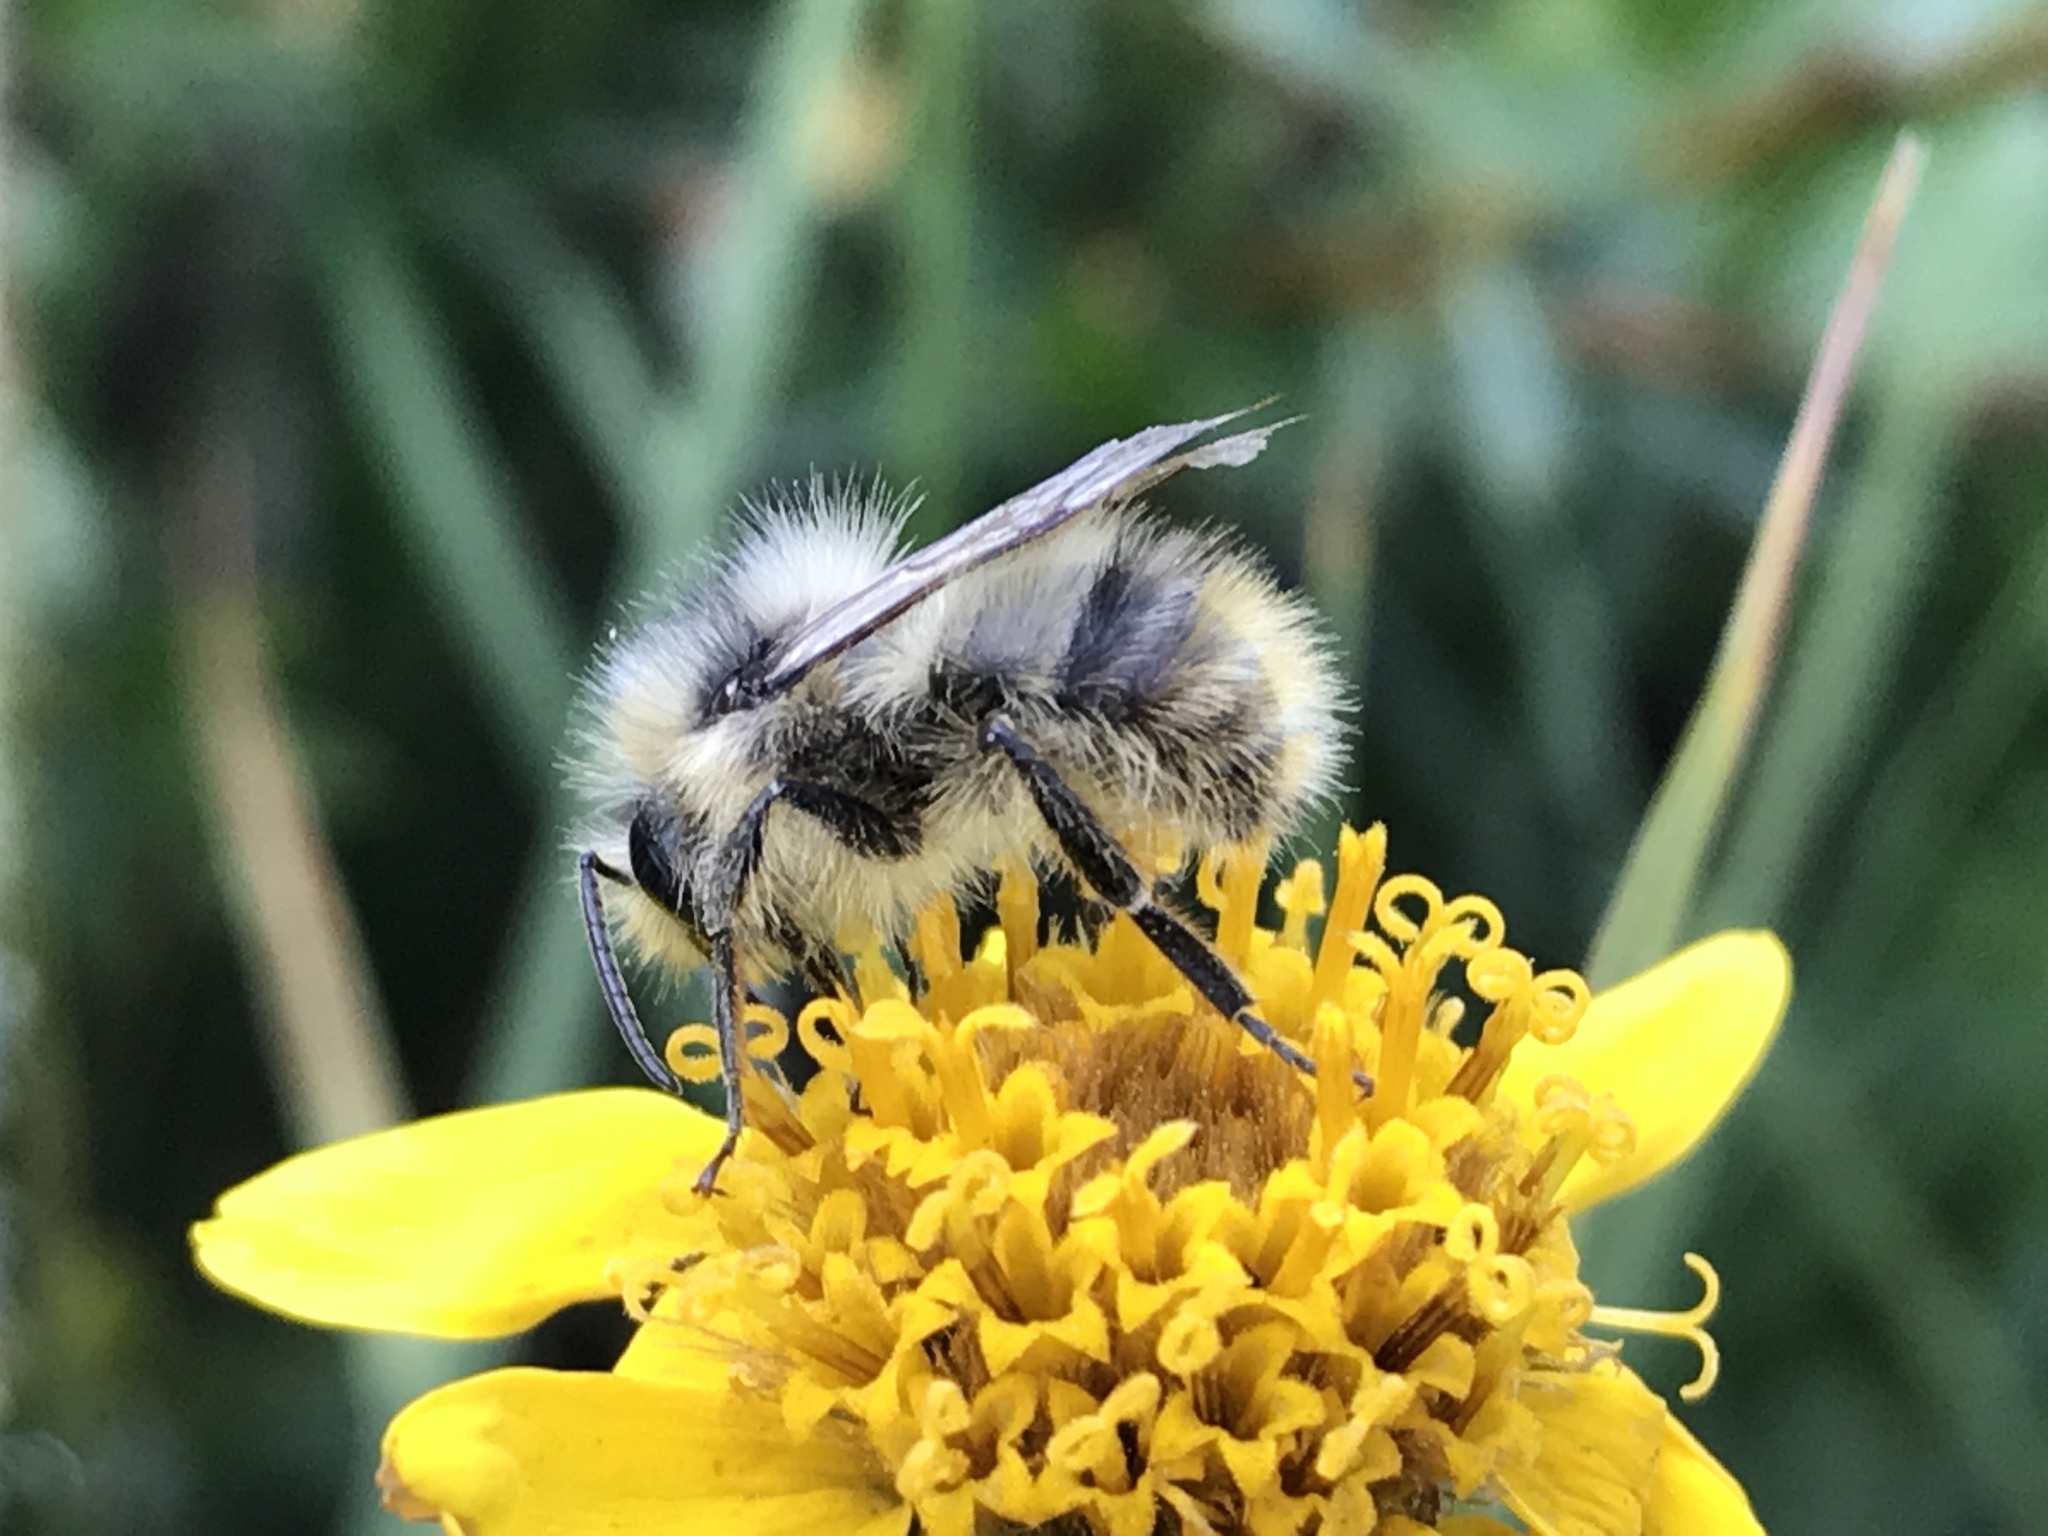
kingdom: Animalia
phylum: Arthropoda
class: Insecta
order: Hymenoptera
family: Apidae
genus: Bombus
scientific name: Bombus mixtus
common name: Fuzzy-horned bumble bee
